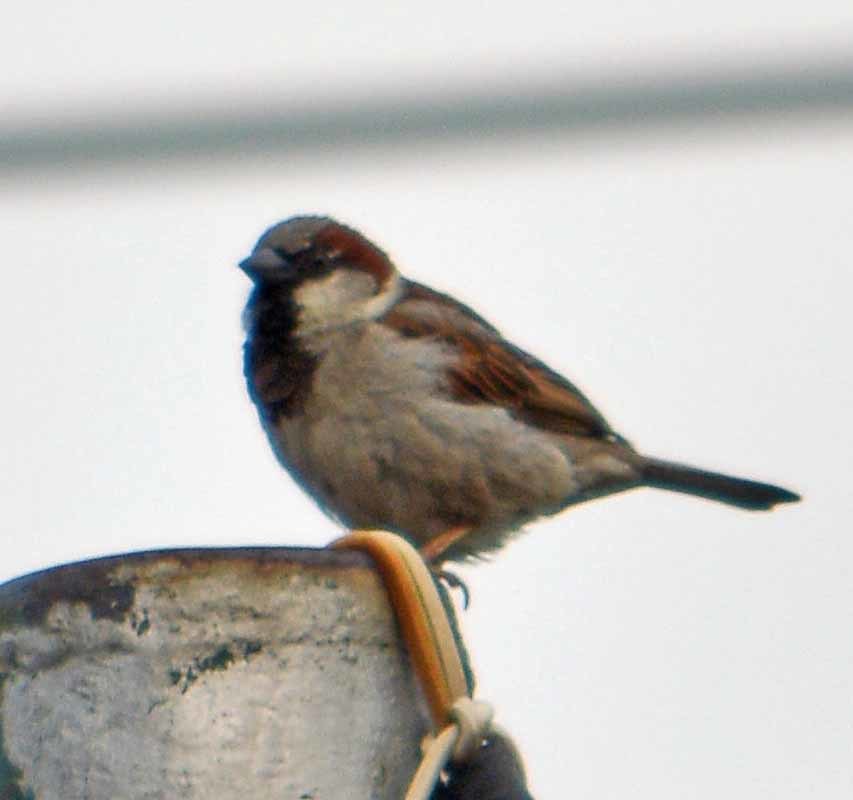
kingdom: Animalia
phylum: Chordata
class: Aves
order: Passeriformes
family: Passeridae
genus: Passer
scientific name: Passer domesticus
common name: House sparrow
